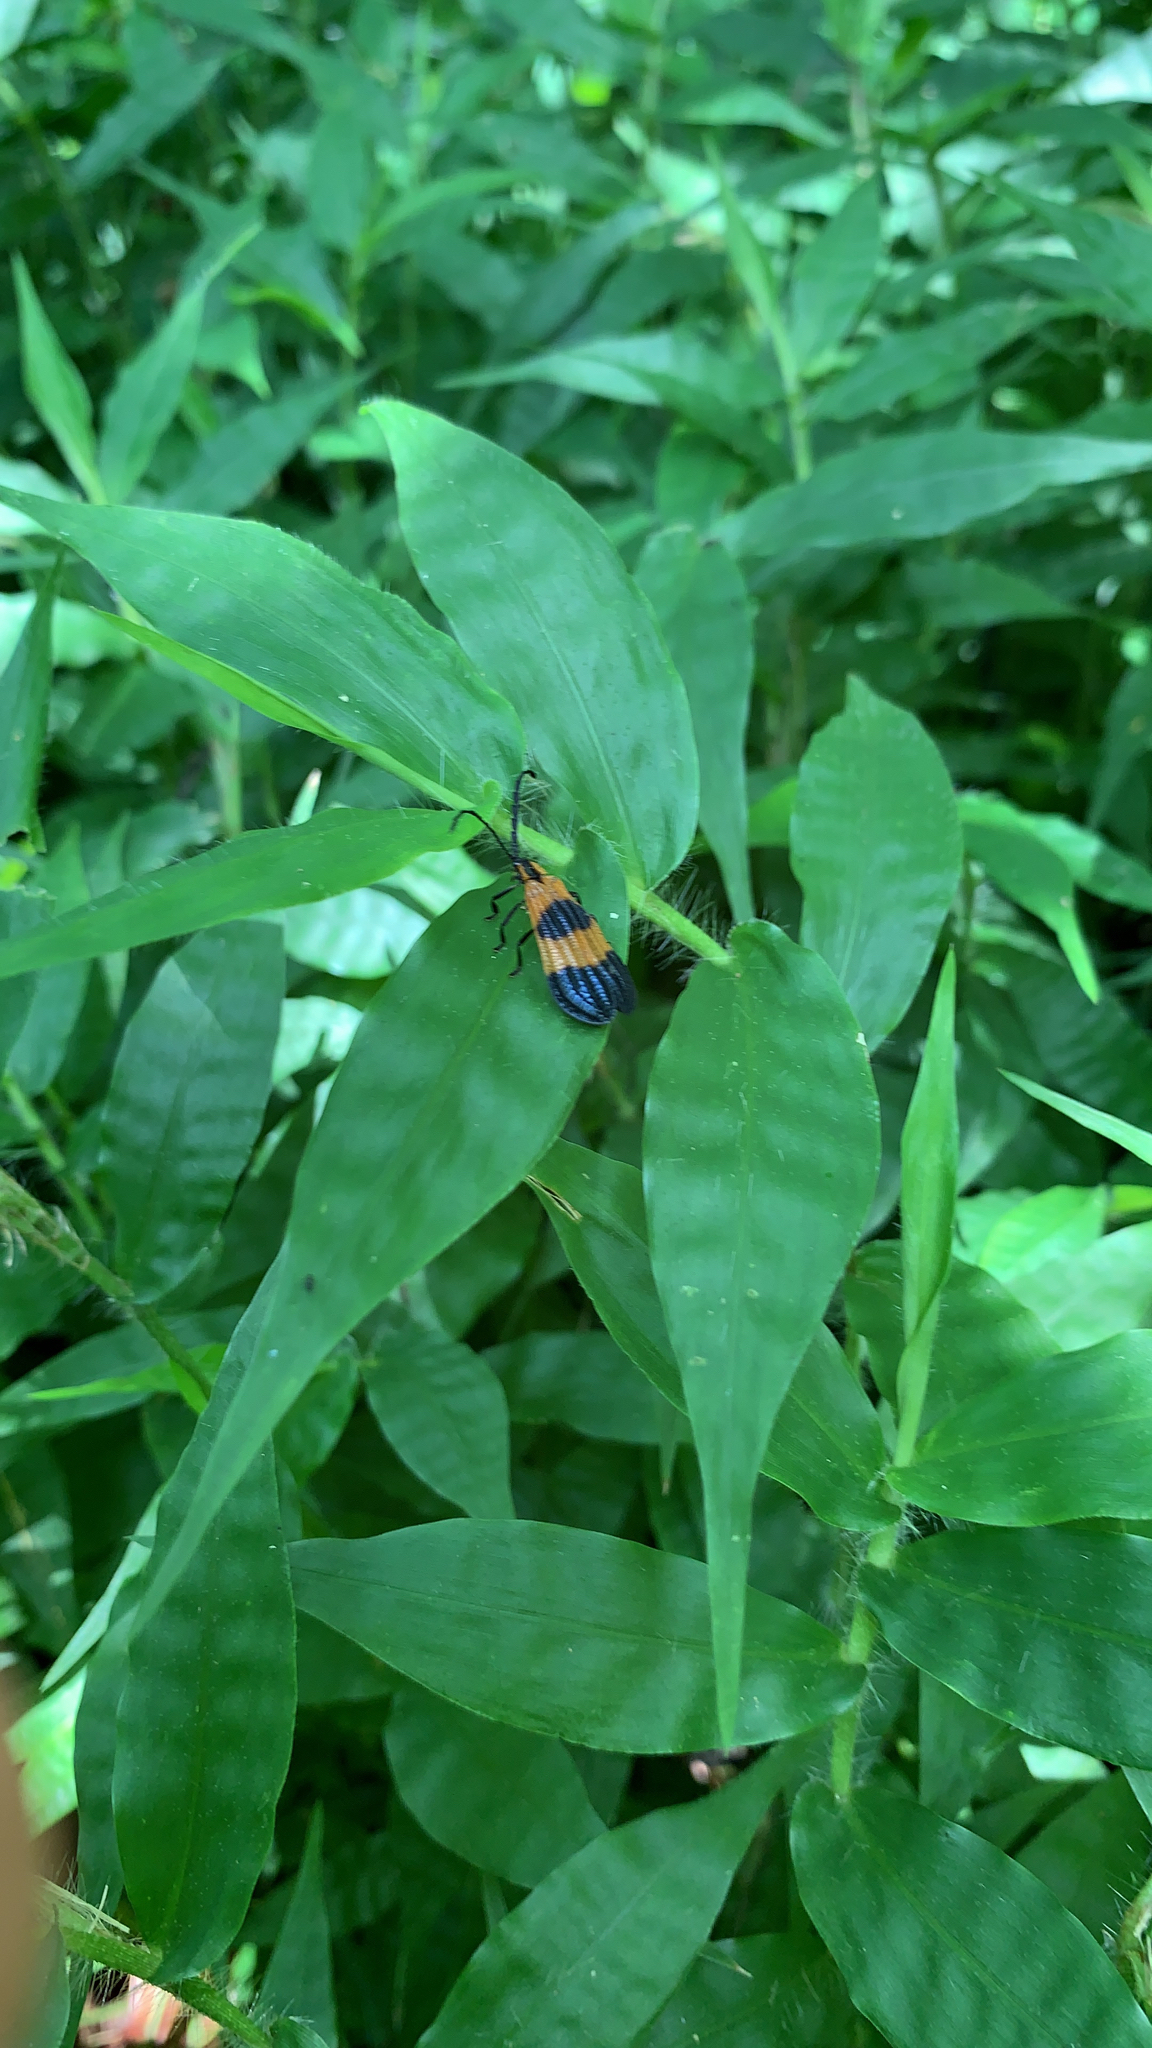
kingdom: Animalia
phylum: Arthropoda
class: Insecta
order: Coleoptera
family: Lycidae
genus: Calopteron
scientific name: Calopteron terminale
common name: End band net-winged beetle
